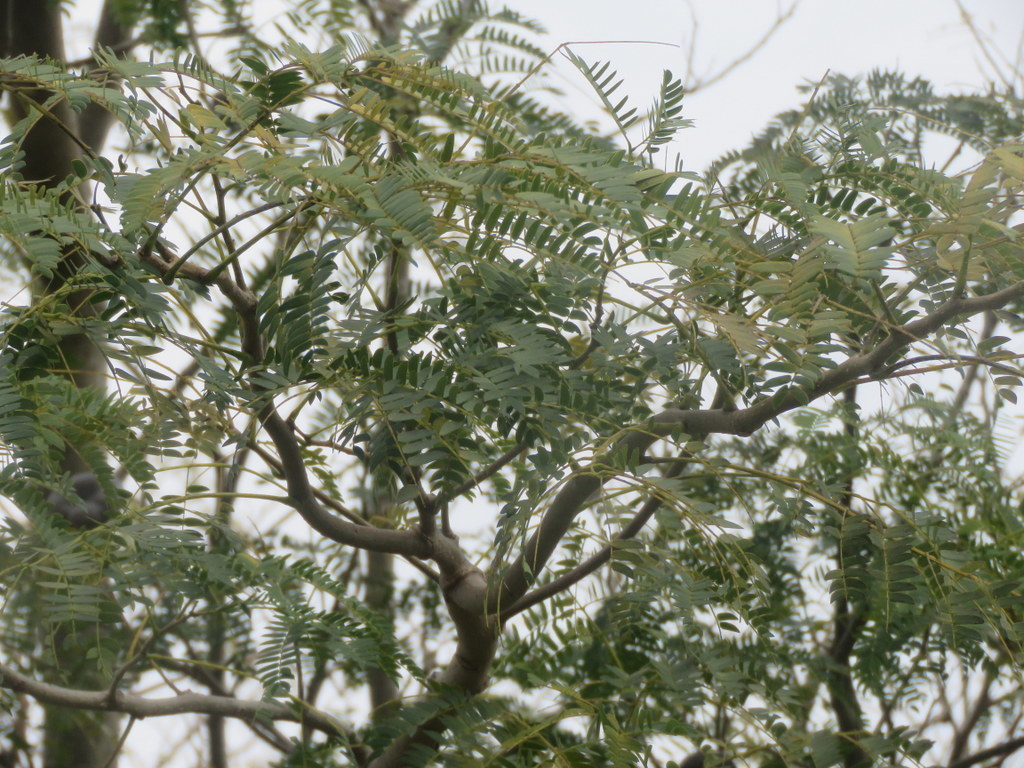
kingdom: Plantae
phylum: Tracheophyta
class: Magnoliopsida
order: Fabales
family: Fabaceae
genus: Enterolobium
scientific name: Enterolobium contortisiliquum
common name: Pacara earpod tree
